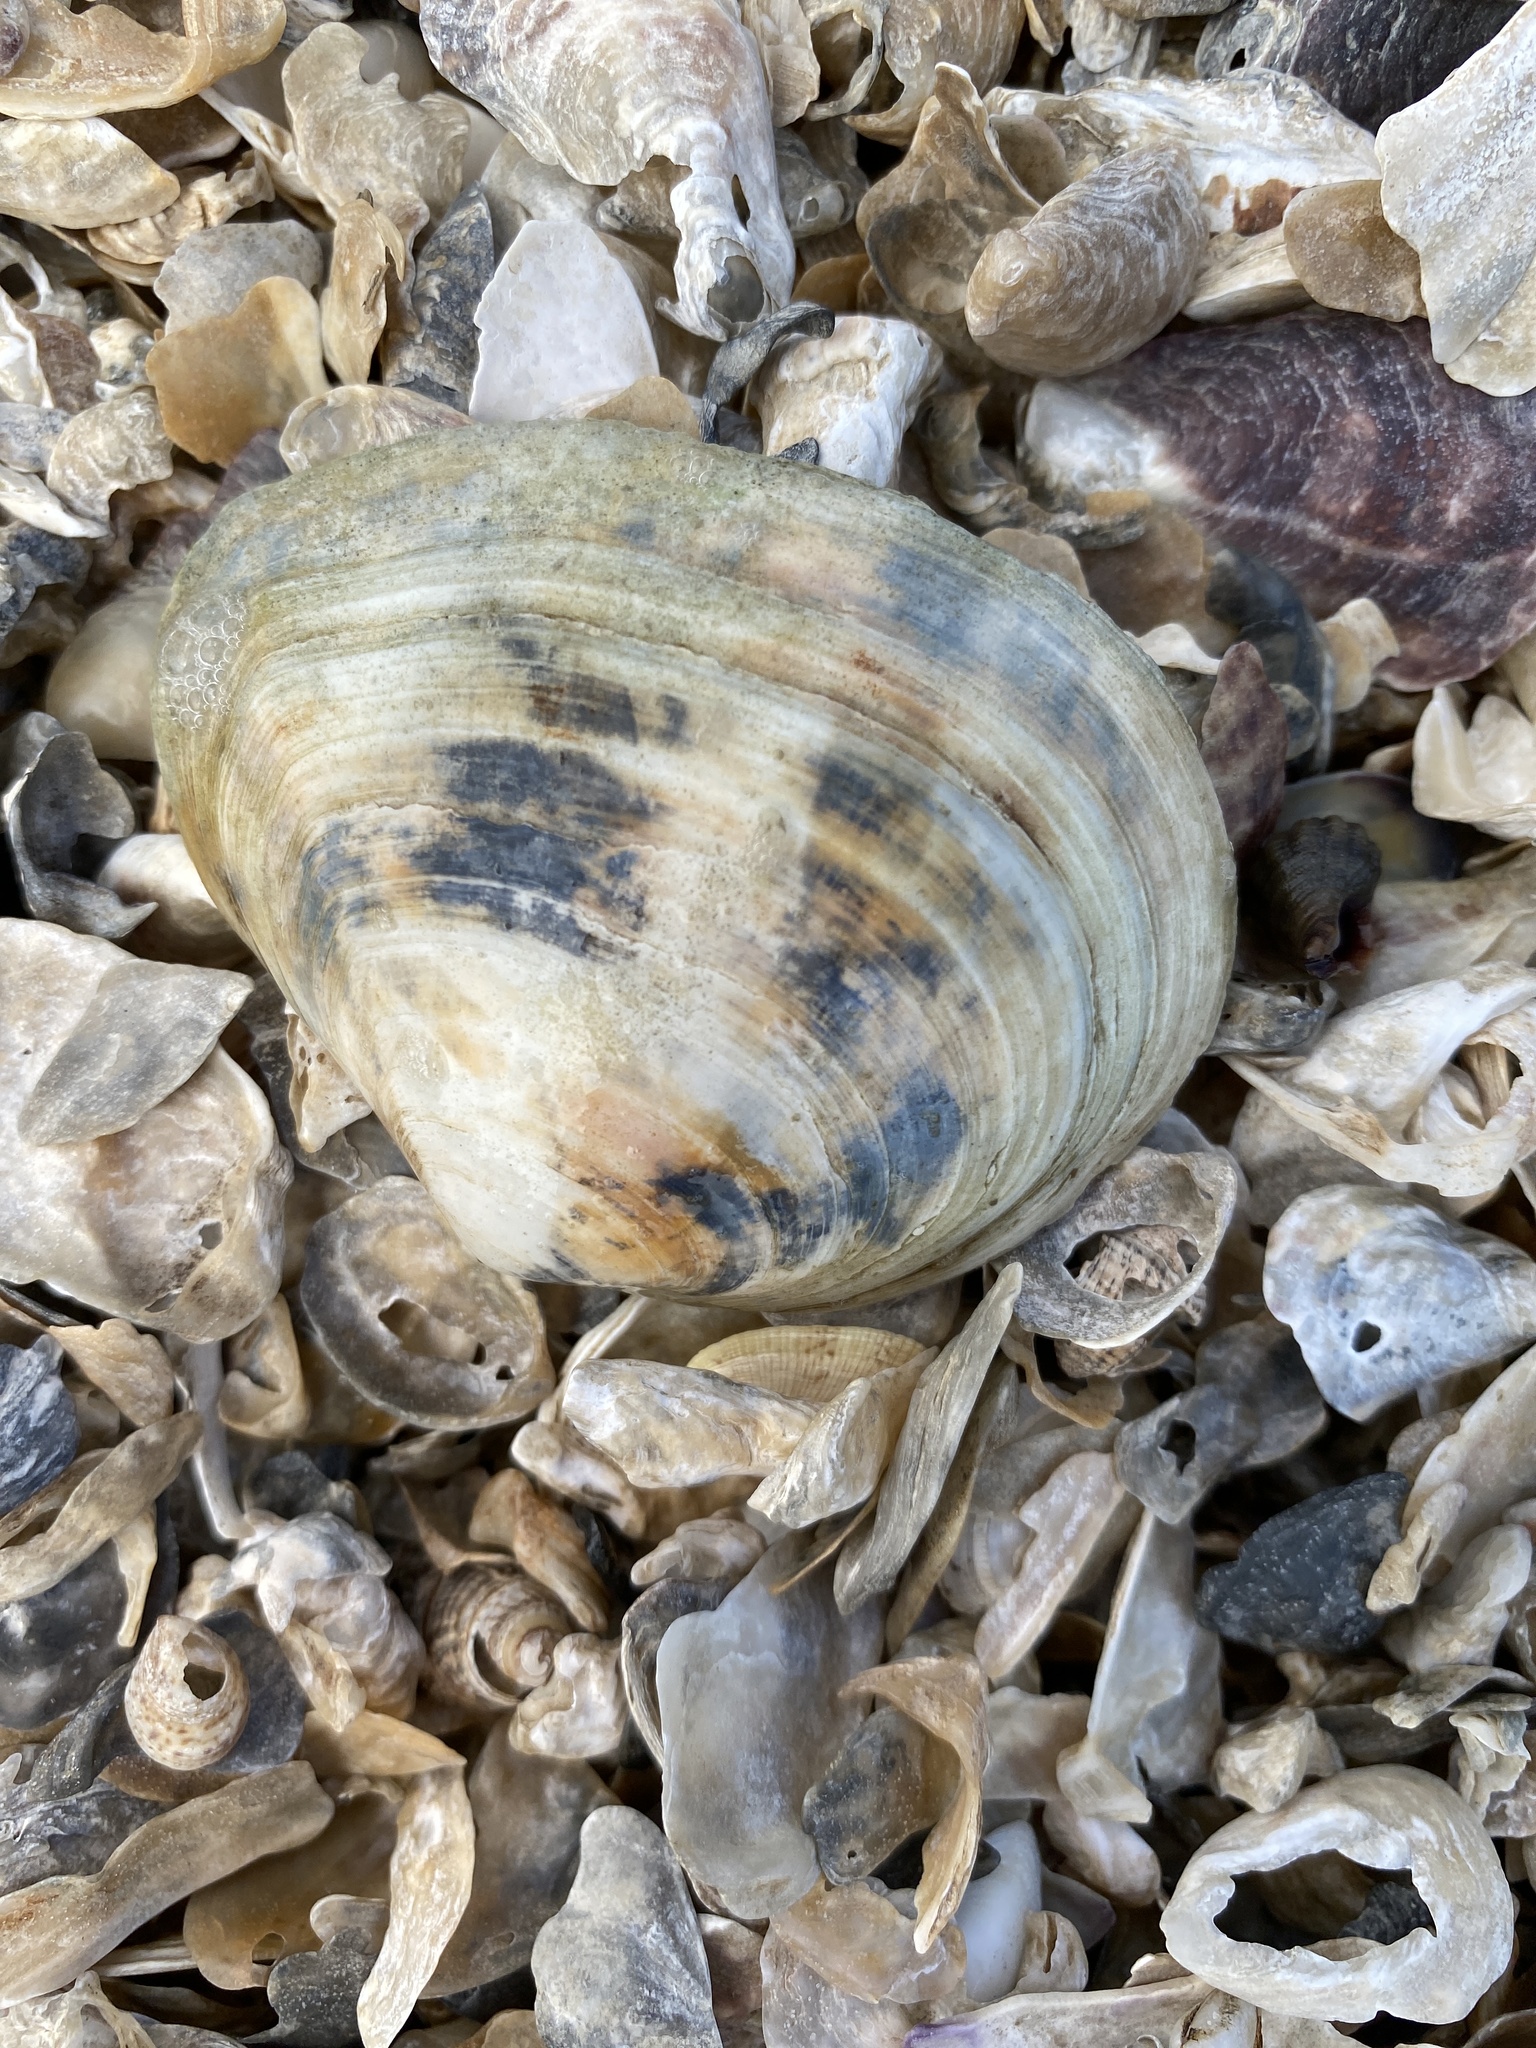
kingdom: Animalia
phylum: Mollusca
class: Bivalvia
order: Cardiida
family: Tellinidae
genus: Macoma
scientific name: Macoma nasuta
